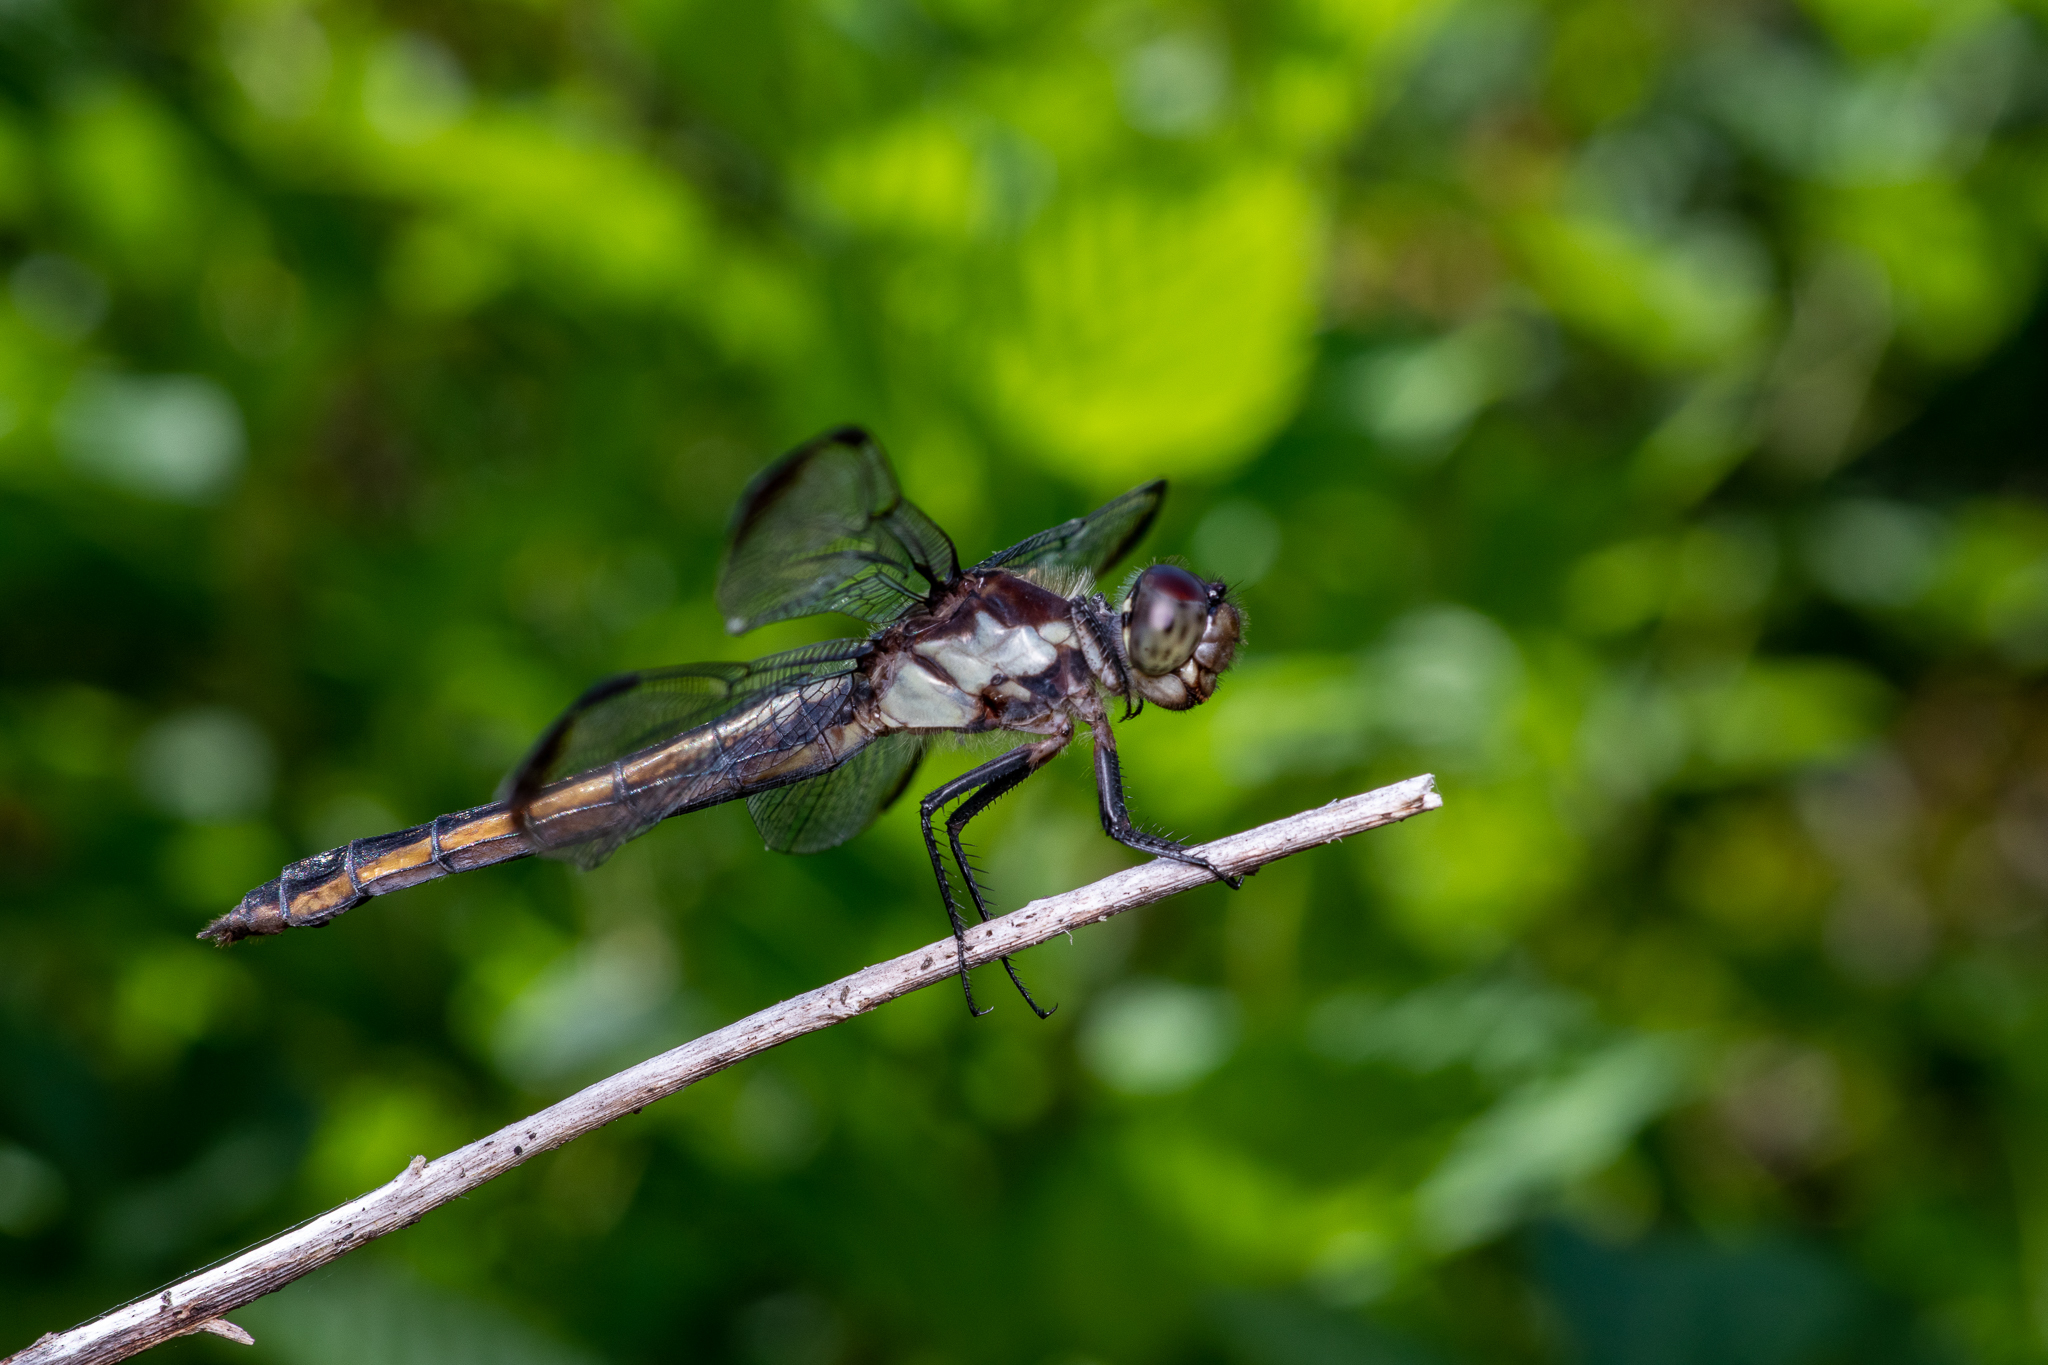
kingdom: Animalia
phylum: Arthropoda
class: Insecta
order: Odonata
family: Libellulidae
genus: Libellula
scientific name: Libellula incesta
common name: Slaty skimmer
